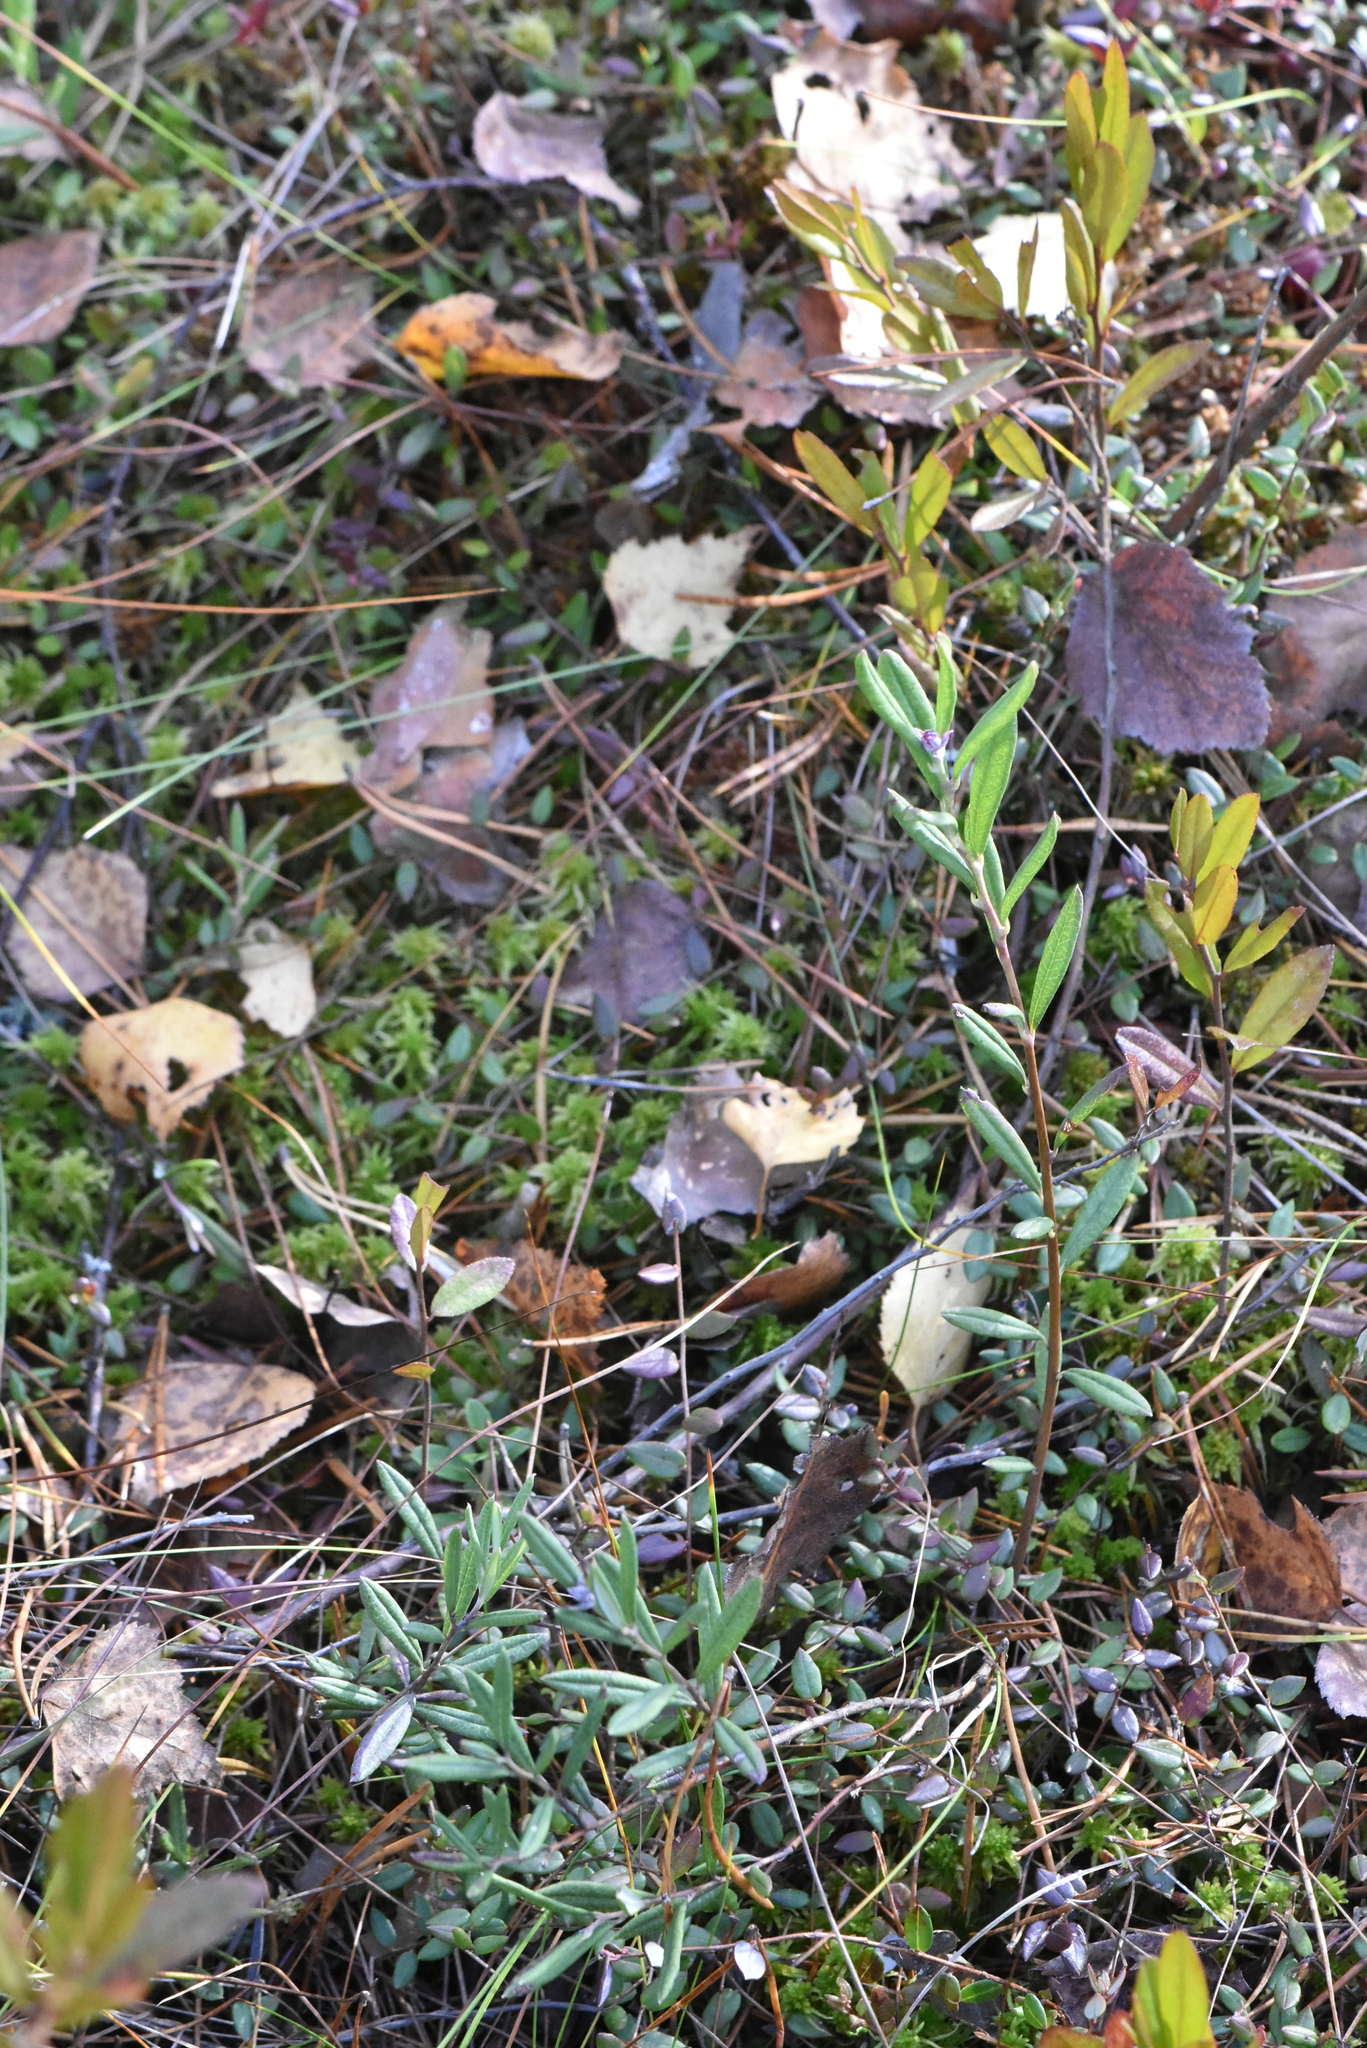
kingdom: Plantae
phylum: Tracheophyta
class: Magnoliopsida
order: Ericales
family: Ericaceae
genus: Andromeda
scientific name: Andromeda polifolia
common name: Bog-rosemary
